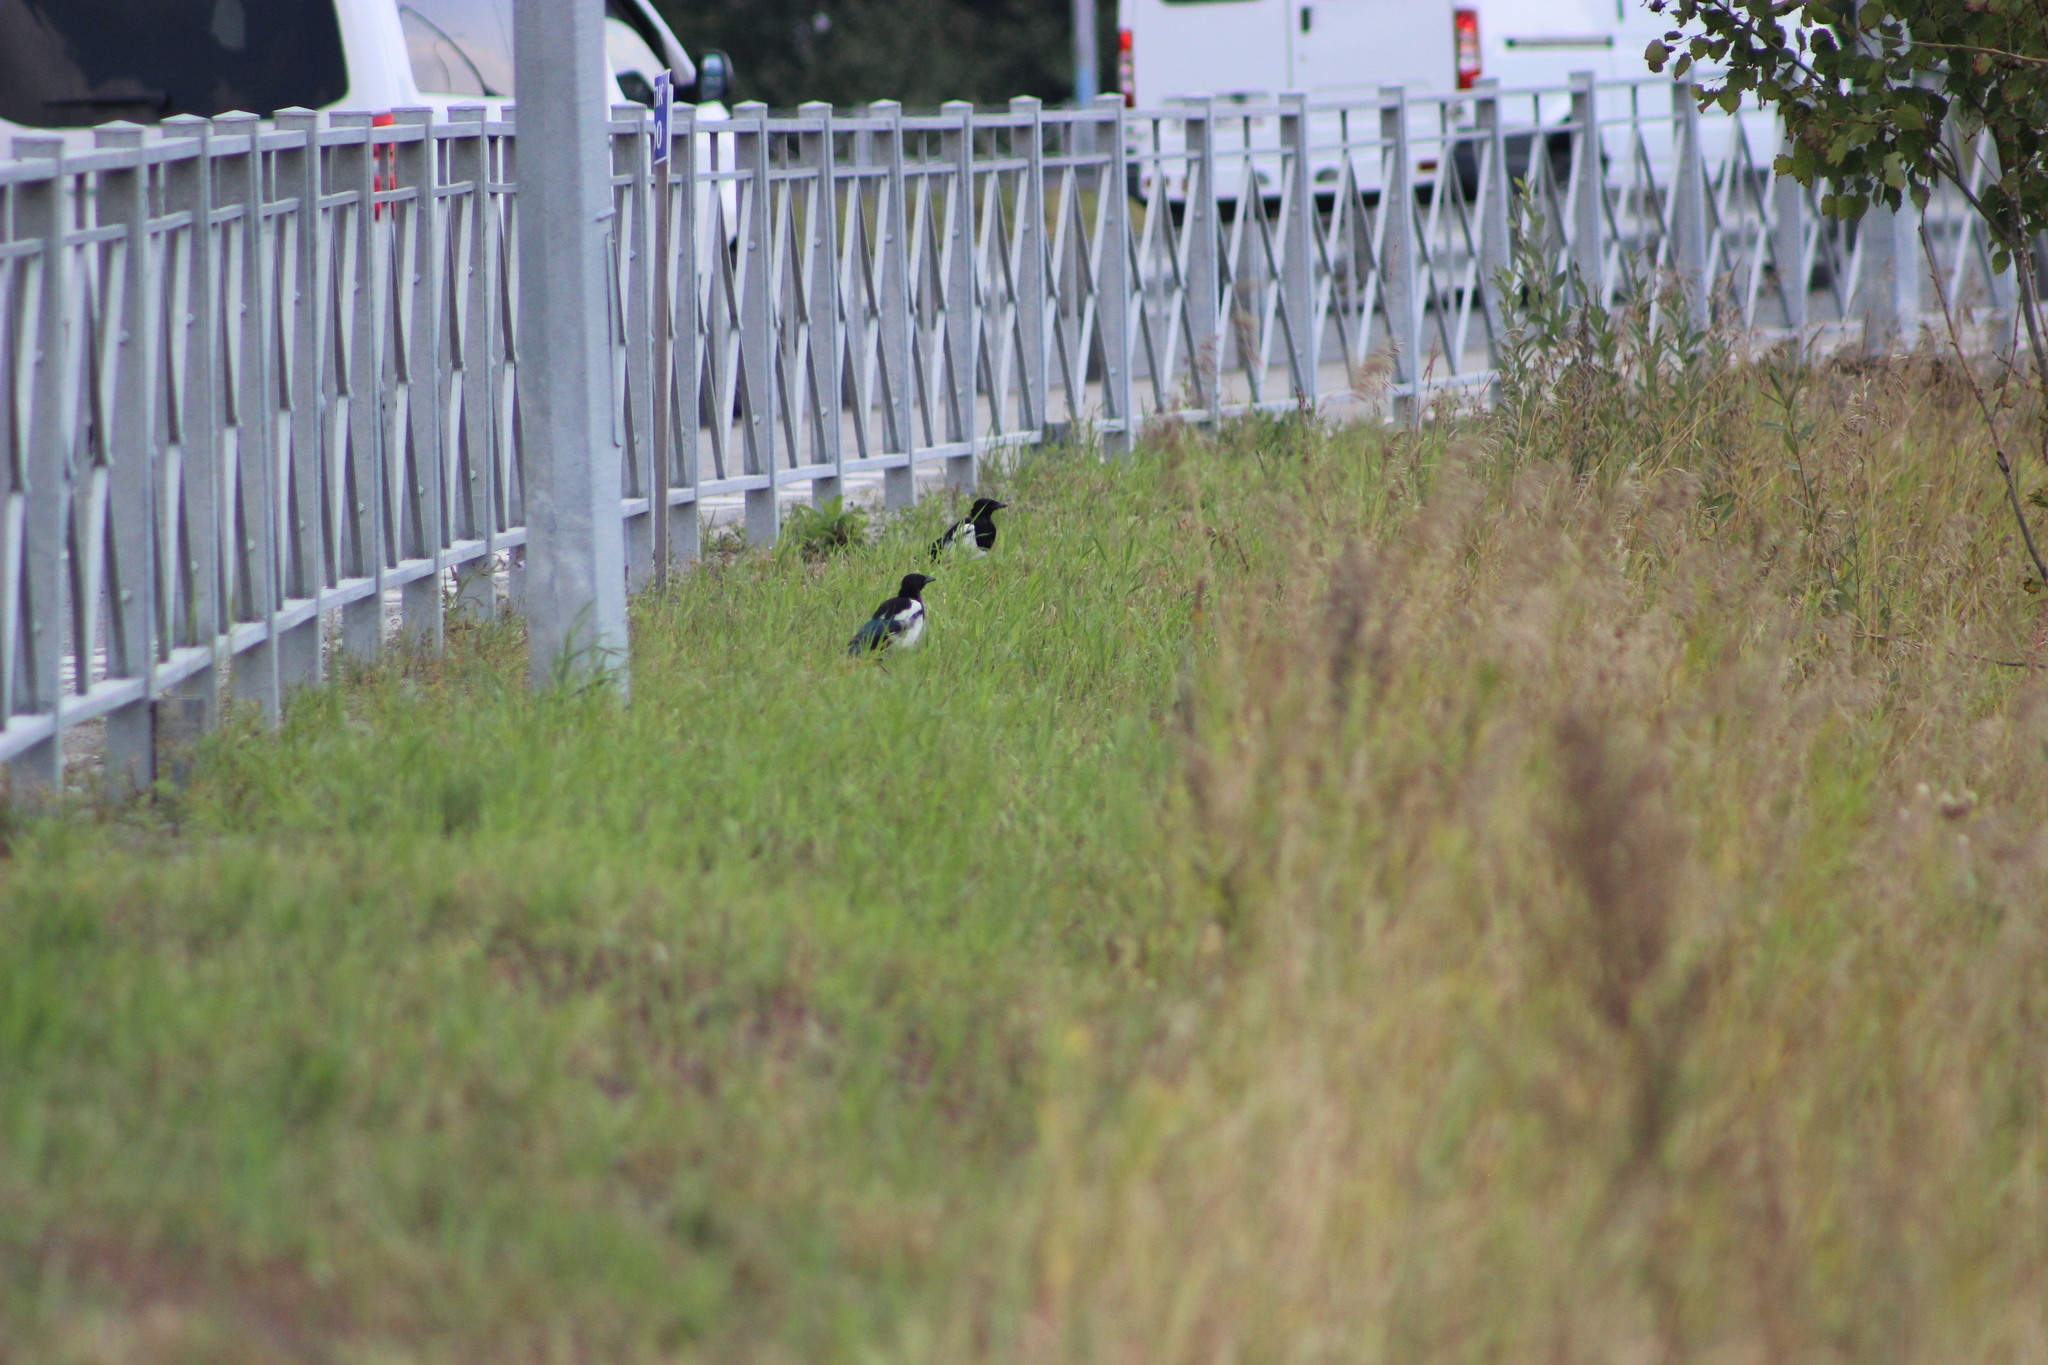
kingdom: Animalia
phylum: Chordata
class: Aves
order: Passeriformes
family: Corvidae
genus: Pica
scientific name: Pica pica
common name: Eurasian magpie
